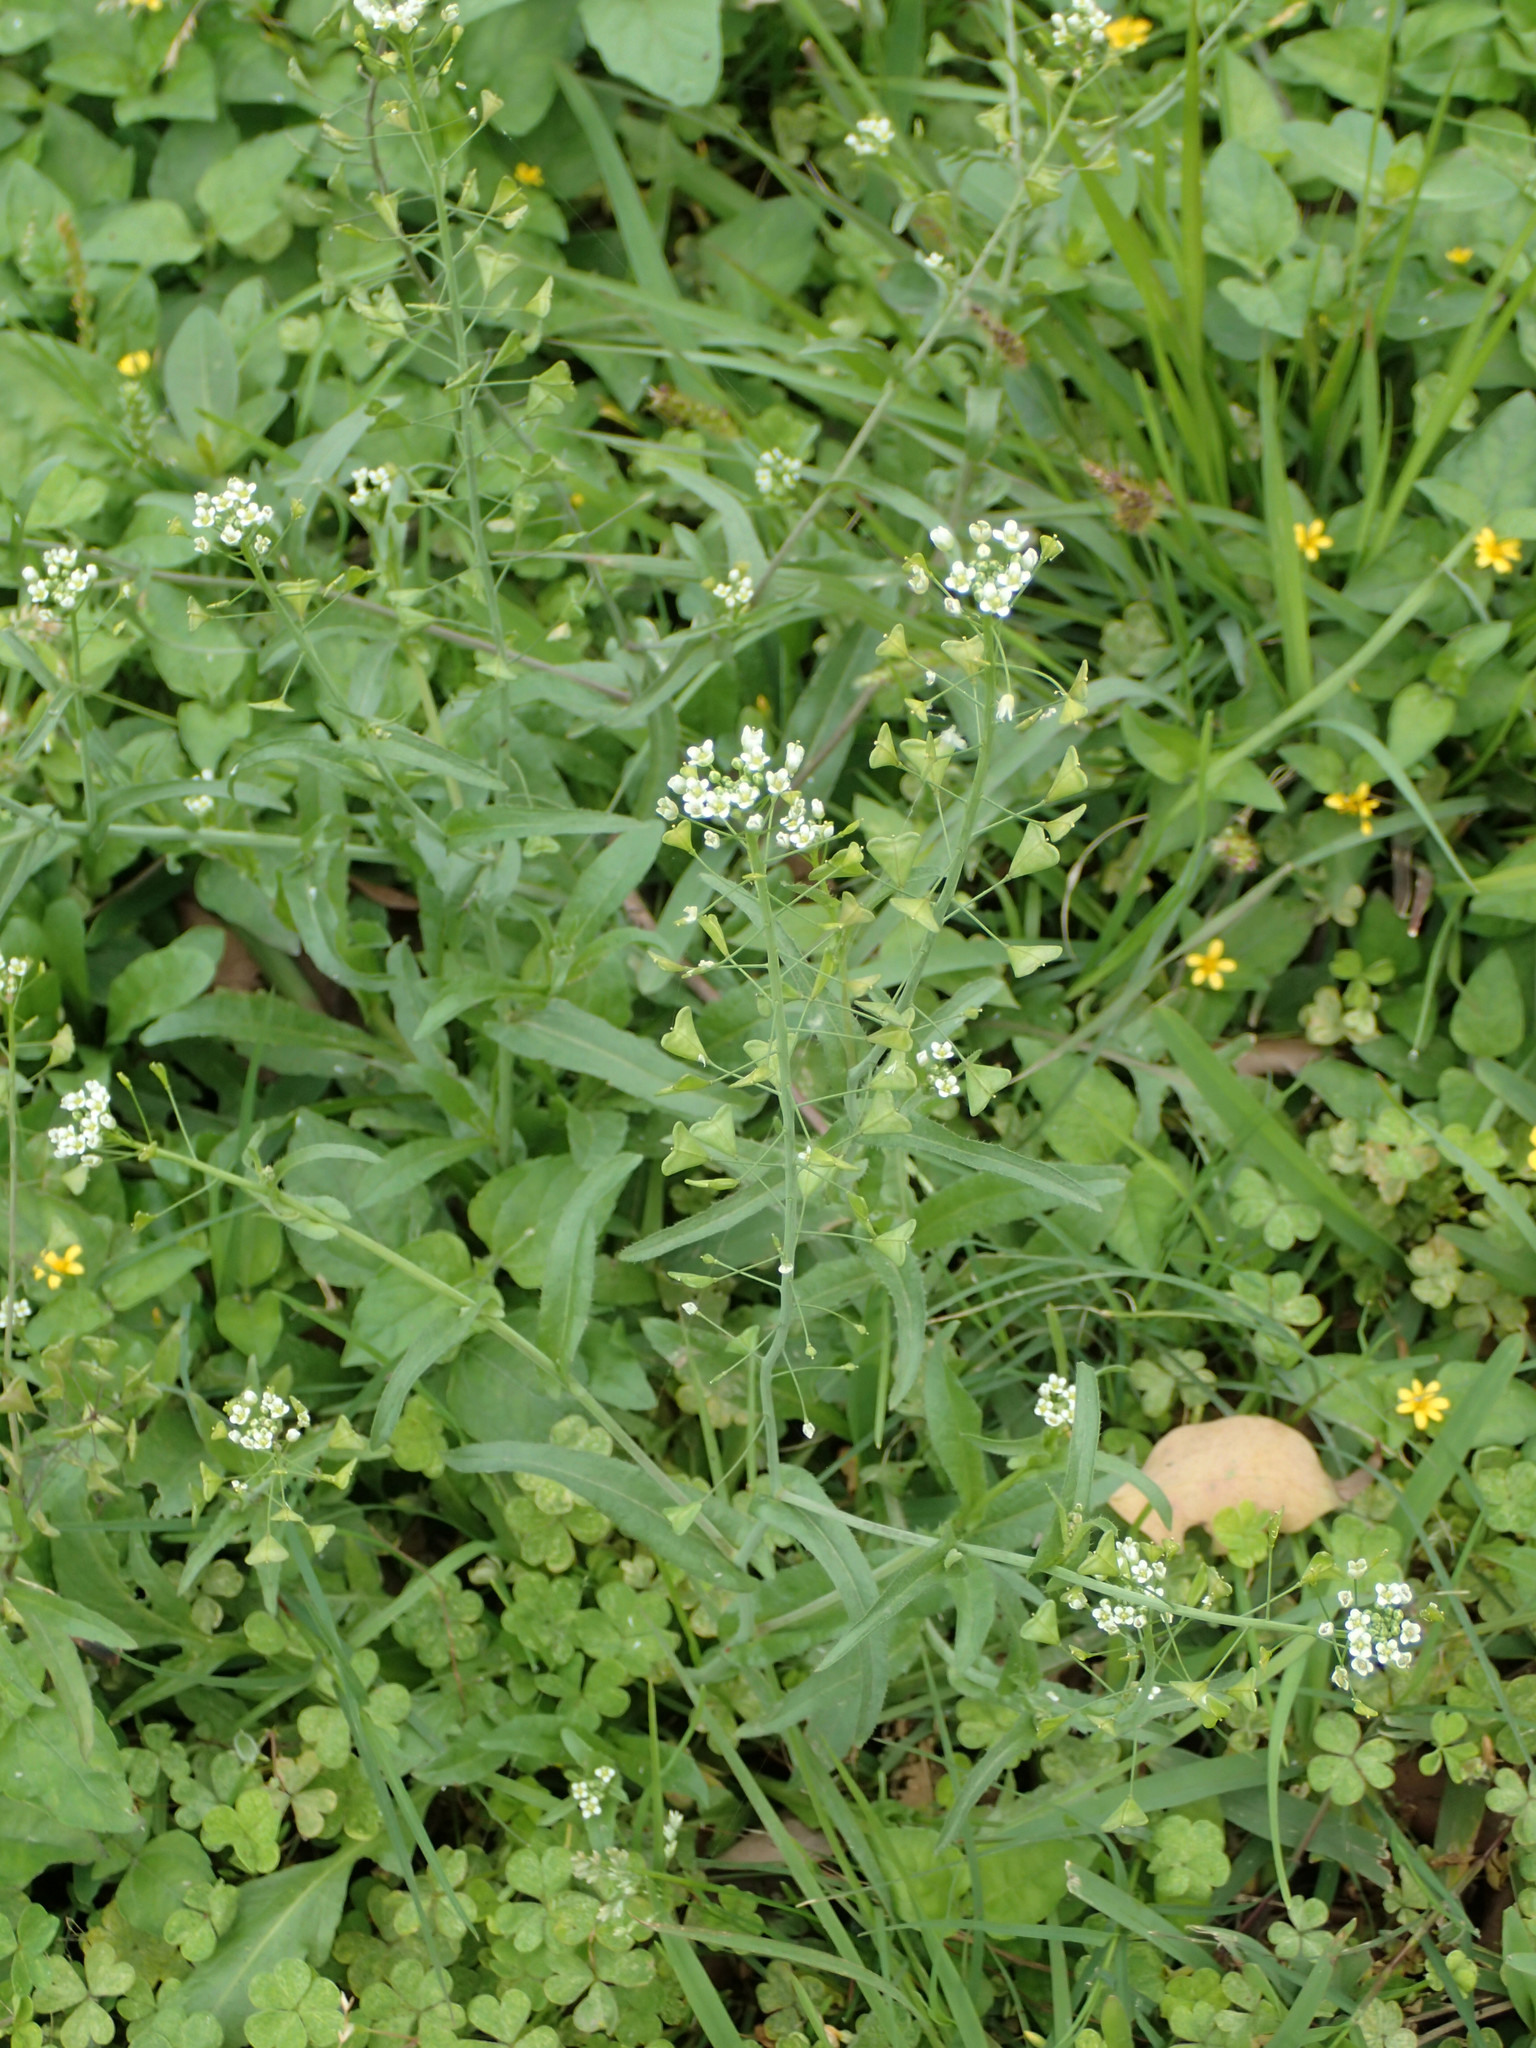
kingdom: Plantae
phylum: Tracheophyta
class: Magnoliopsida
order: Brassicales
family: Brassicaceae
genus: Capsella
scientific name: Capsella bursa-pastoris
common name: Shepherd's purse
